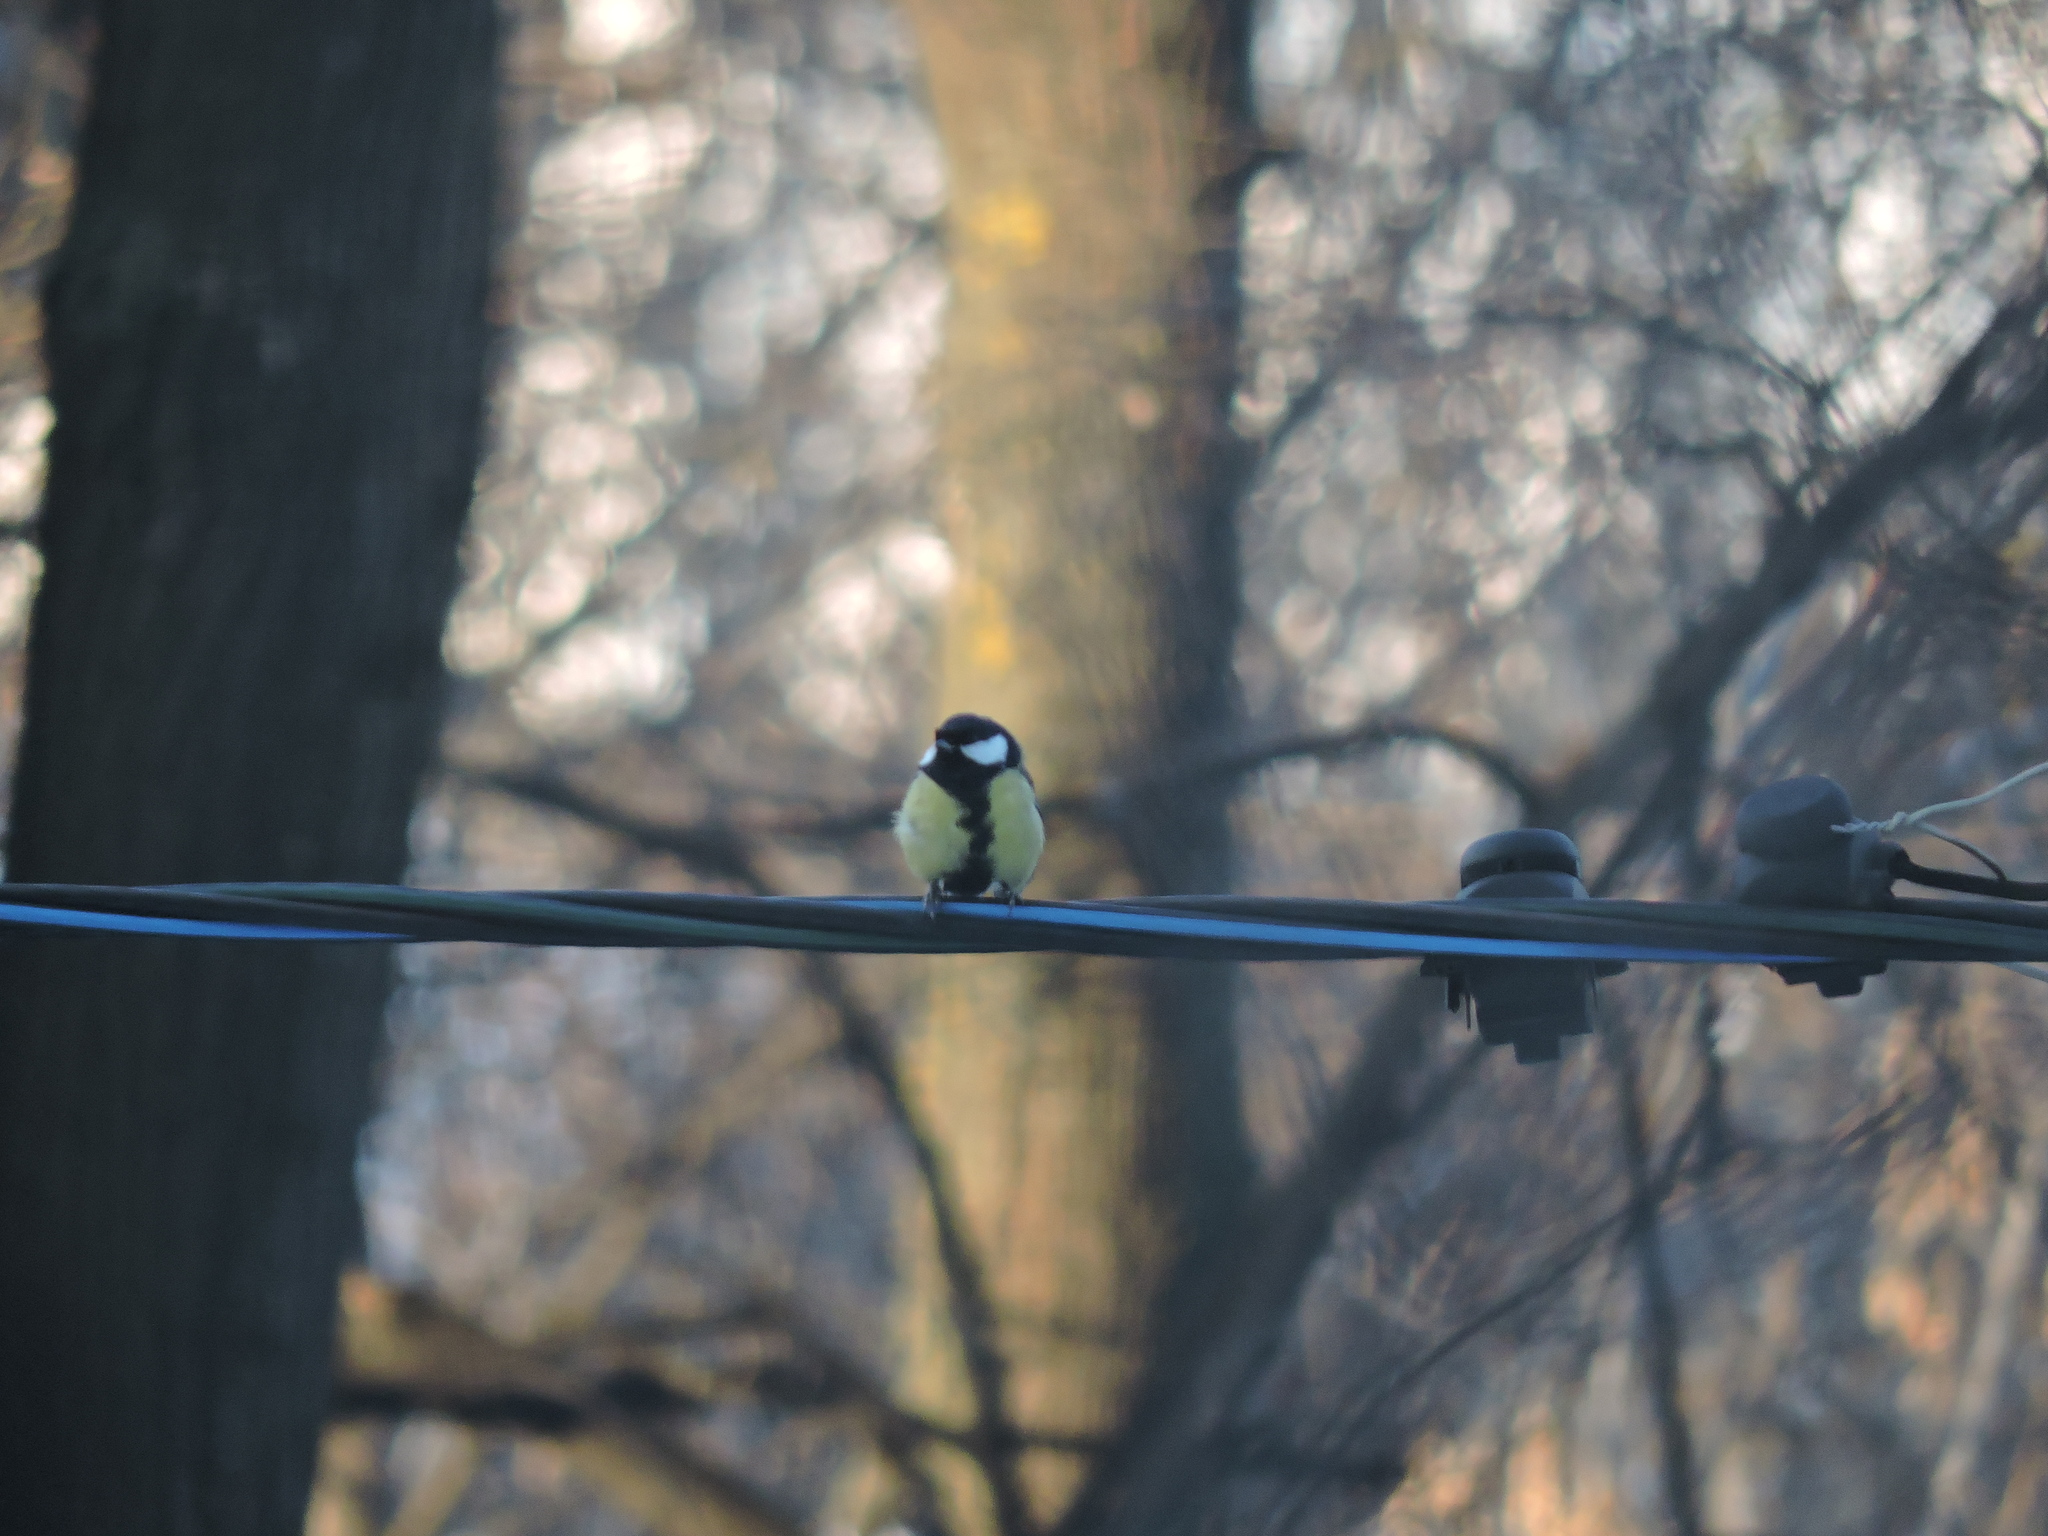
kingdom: Animalia
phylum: Chordata
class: Aves
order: Passeriformes
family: Paridae
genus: Parus
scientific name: Parus major
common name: Great tit
